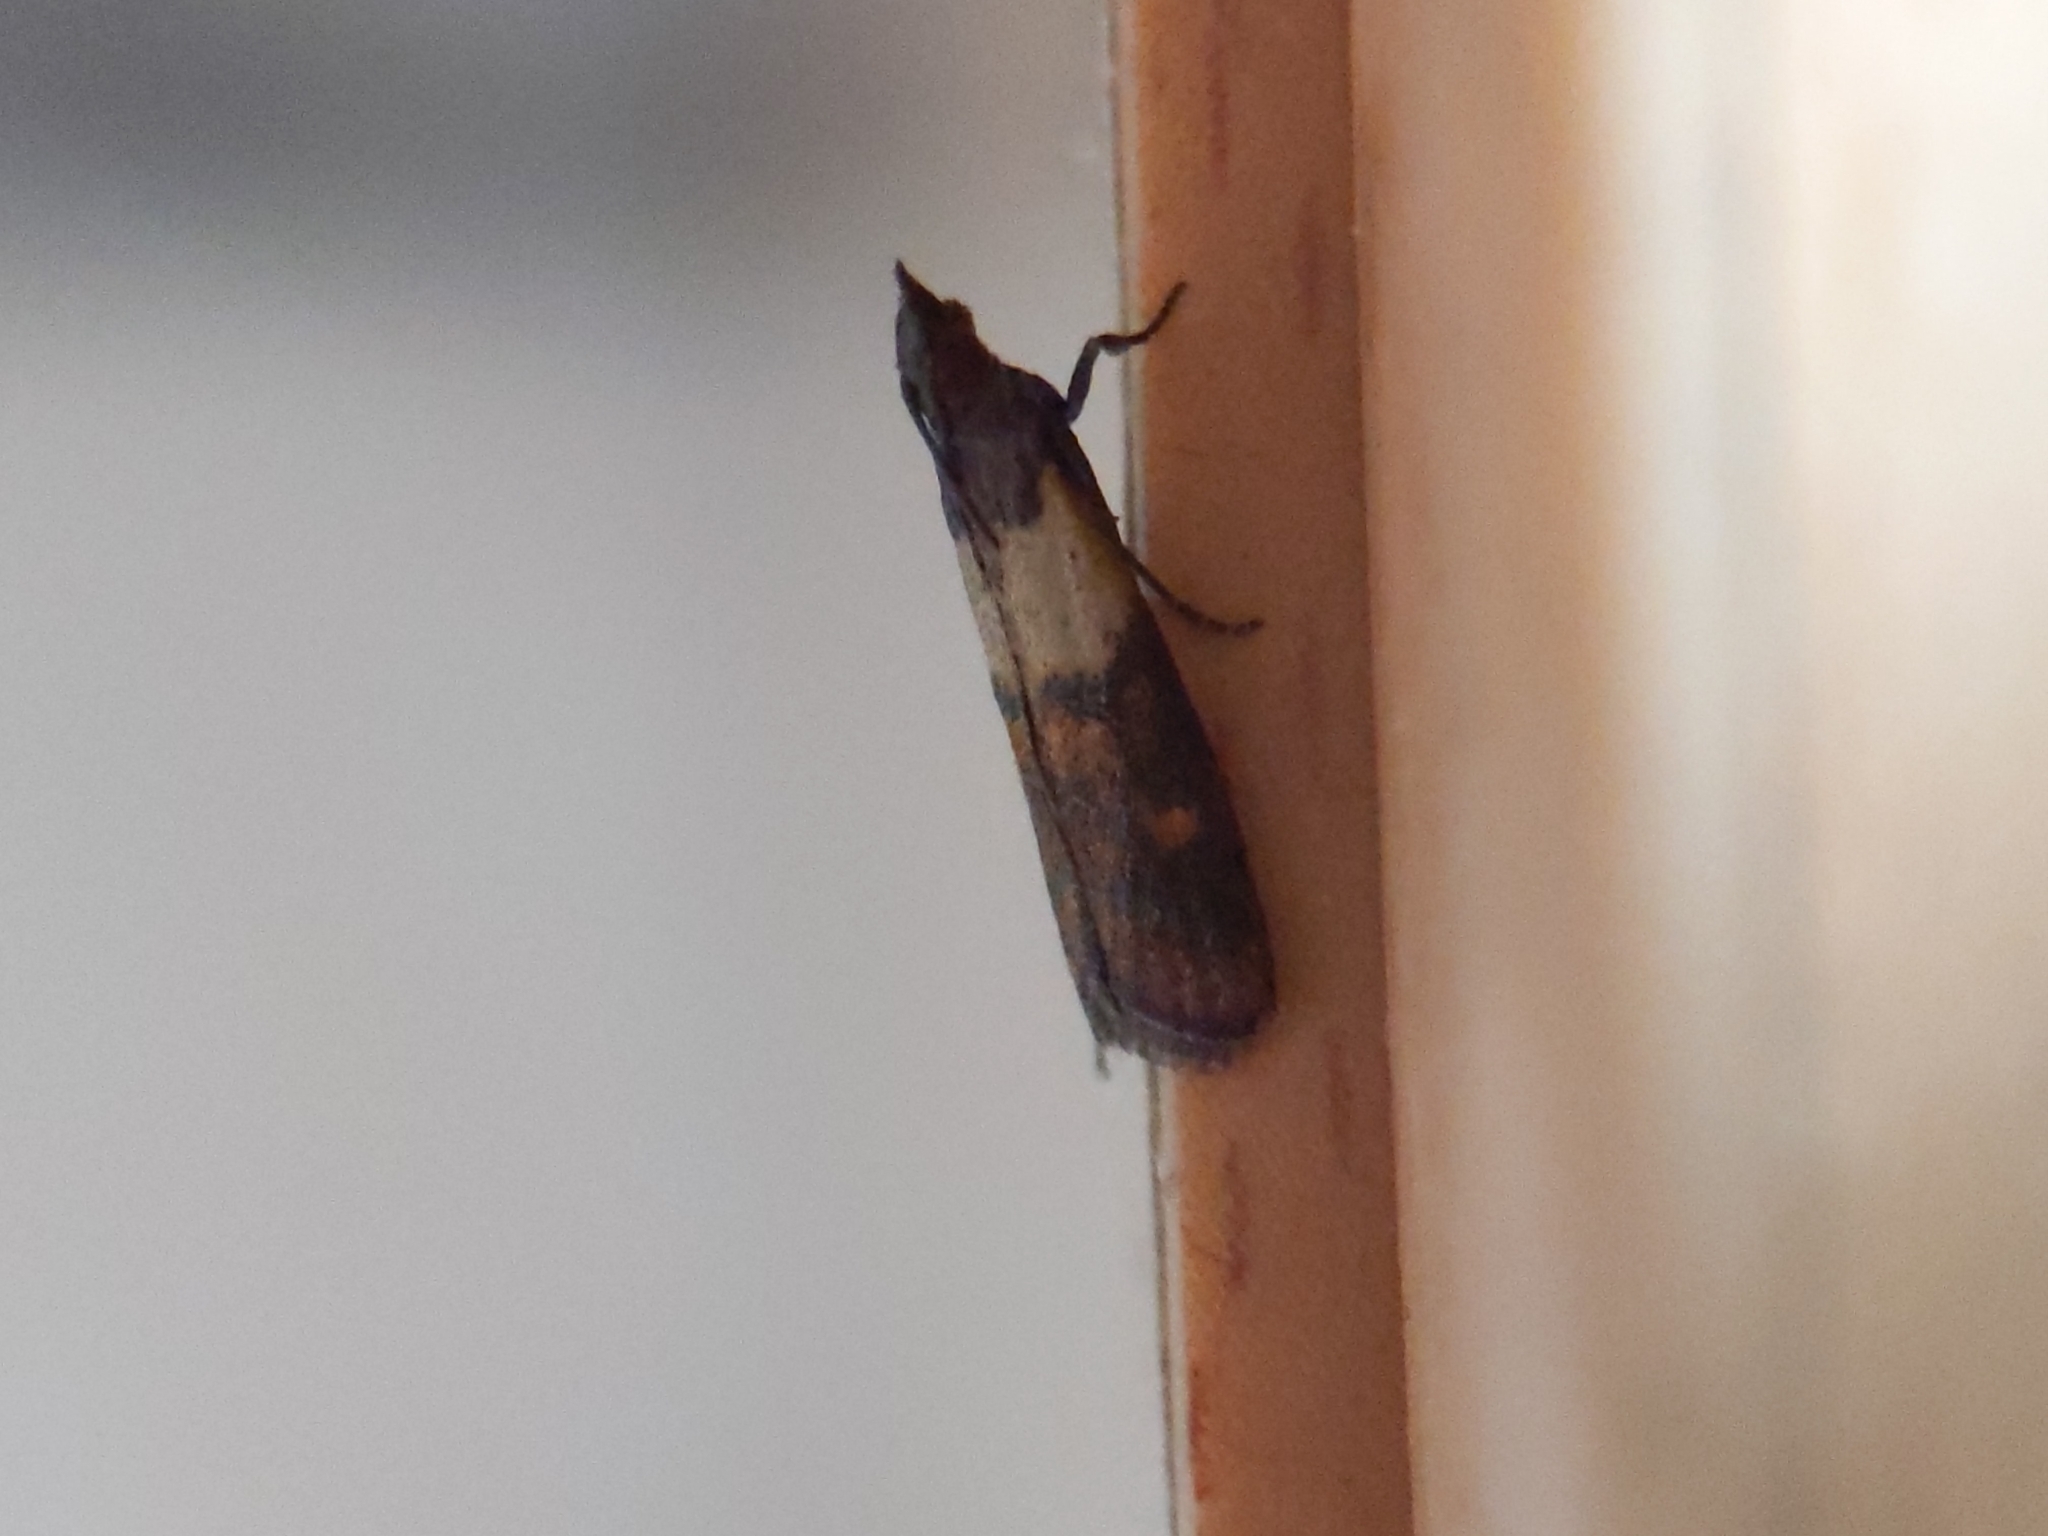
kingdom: Animalia
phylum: Arthropoda
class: Insecta
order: Lepidoptera
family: Pyralidae
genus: Plodia
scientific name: Plodia interpunctella
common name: Indian meal moth
